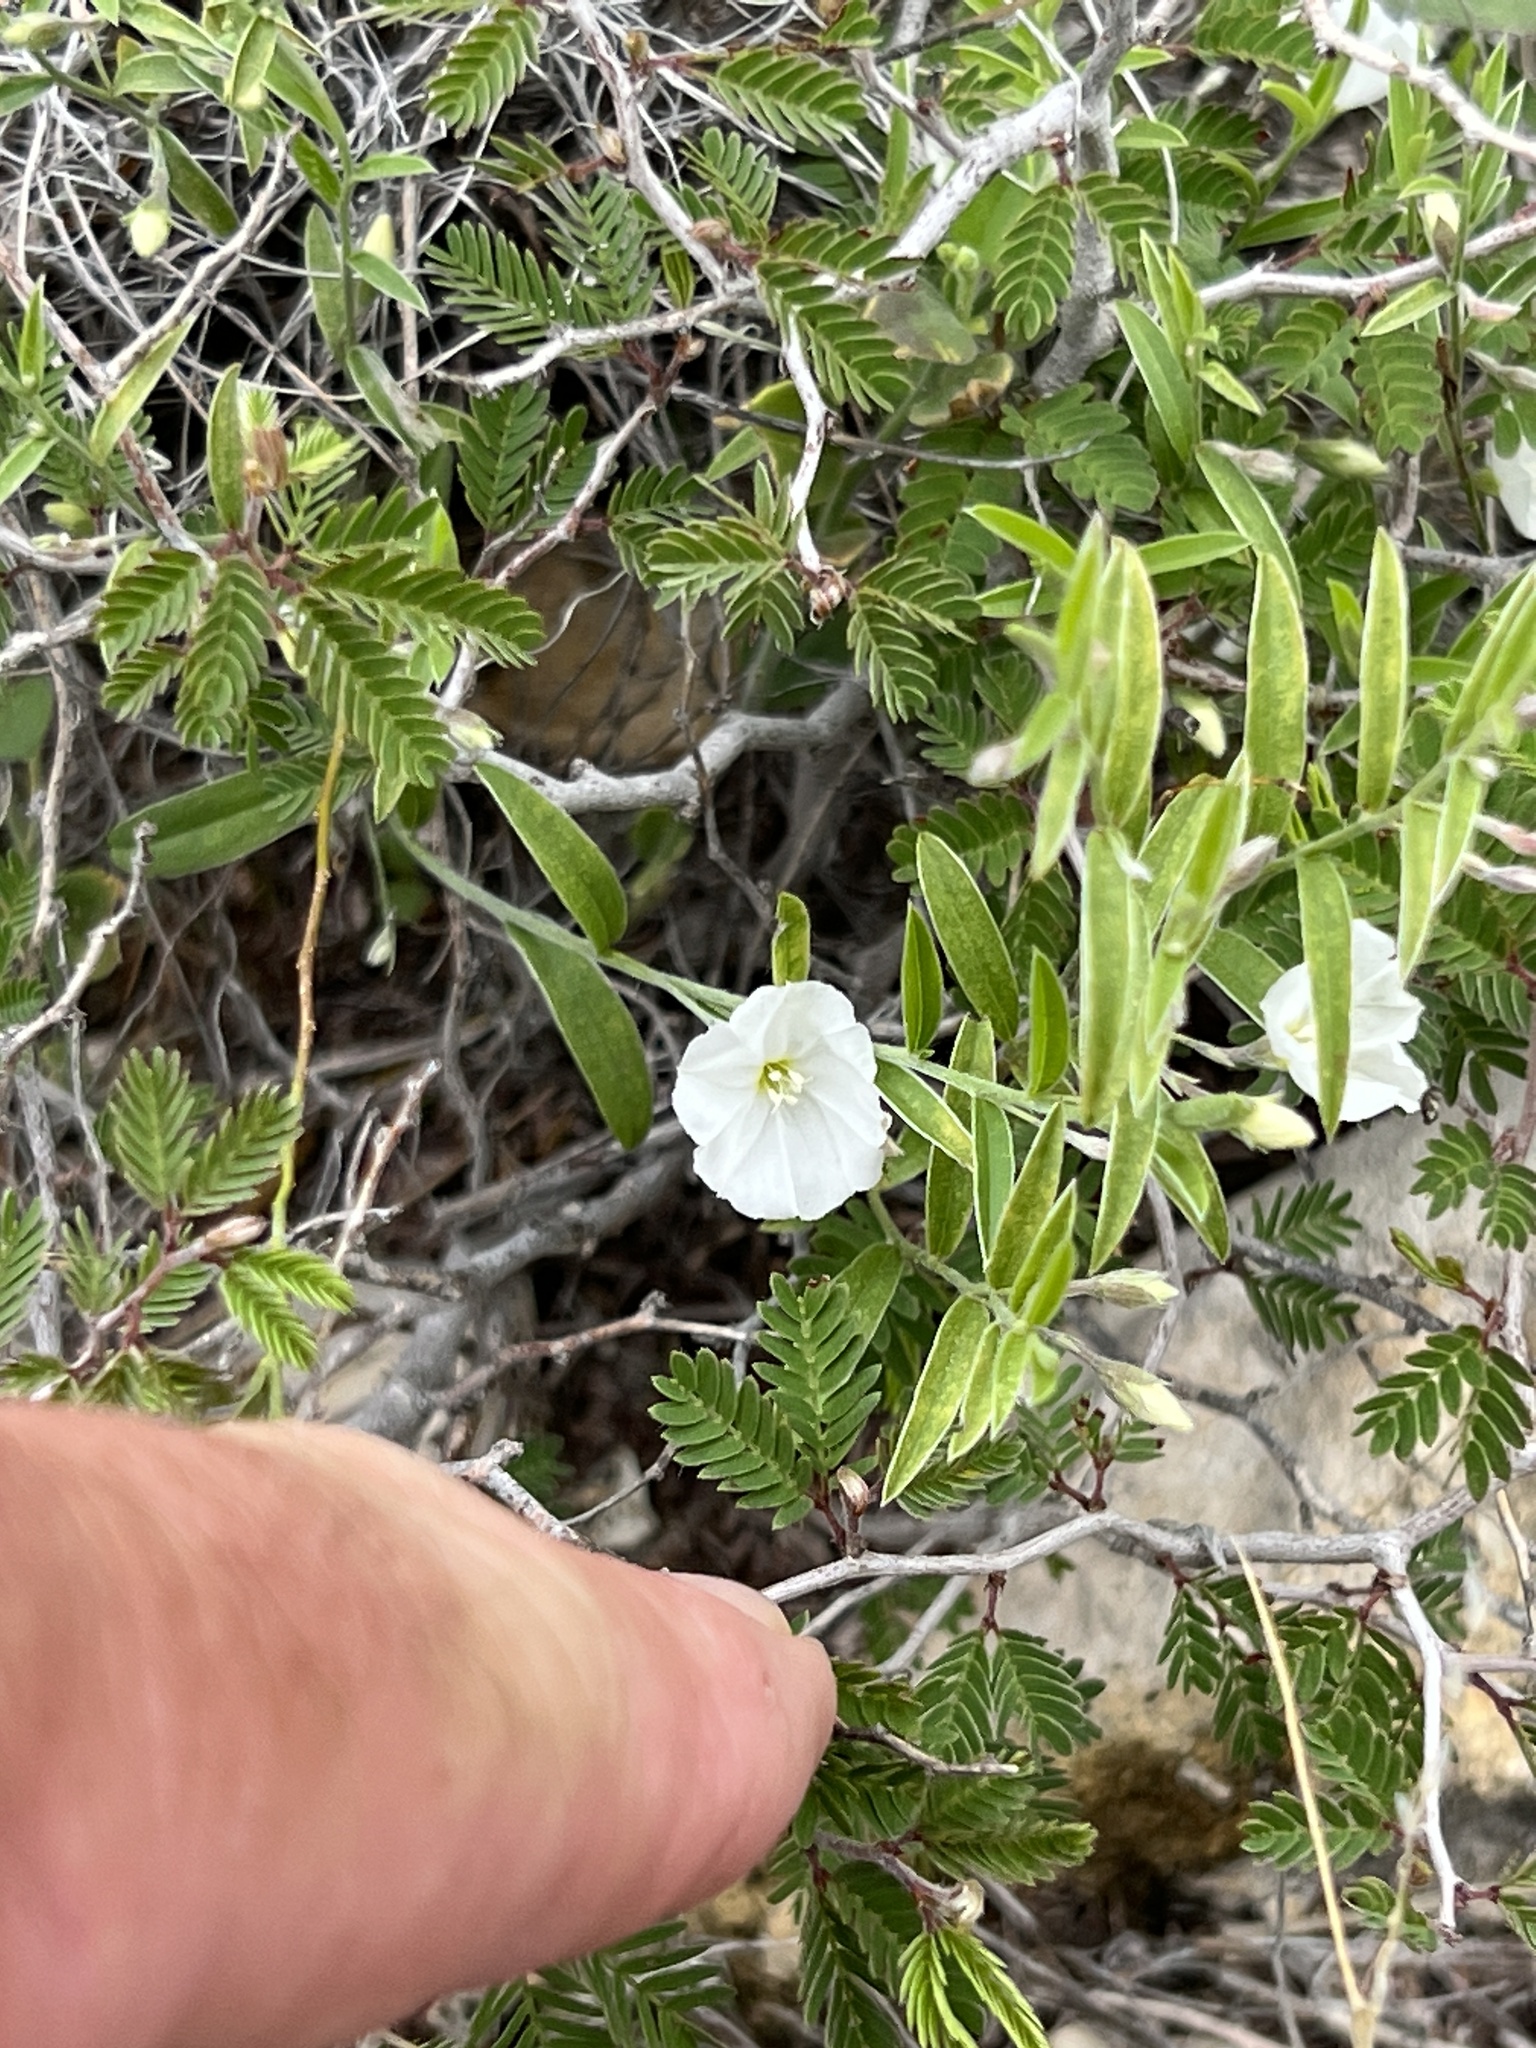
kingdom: Plantae
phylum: Tracheophyta
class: Magnoliopsida
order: Solanales
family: Convolvulaceae
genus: Evolvulus
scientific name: Evolvulus sericeus
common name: Blue dots
